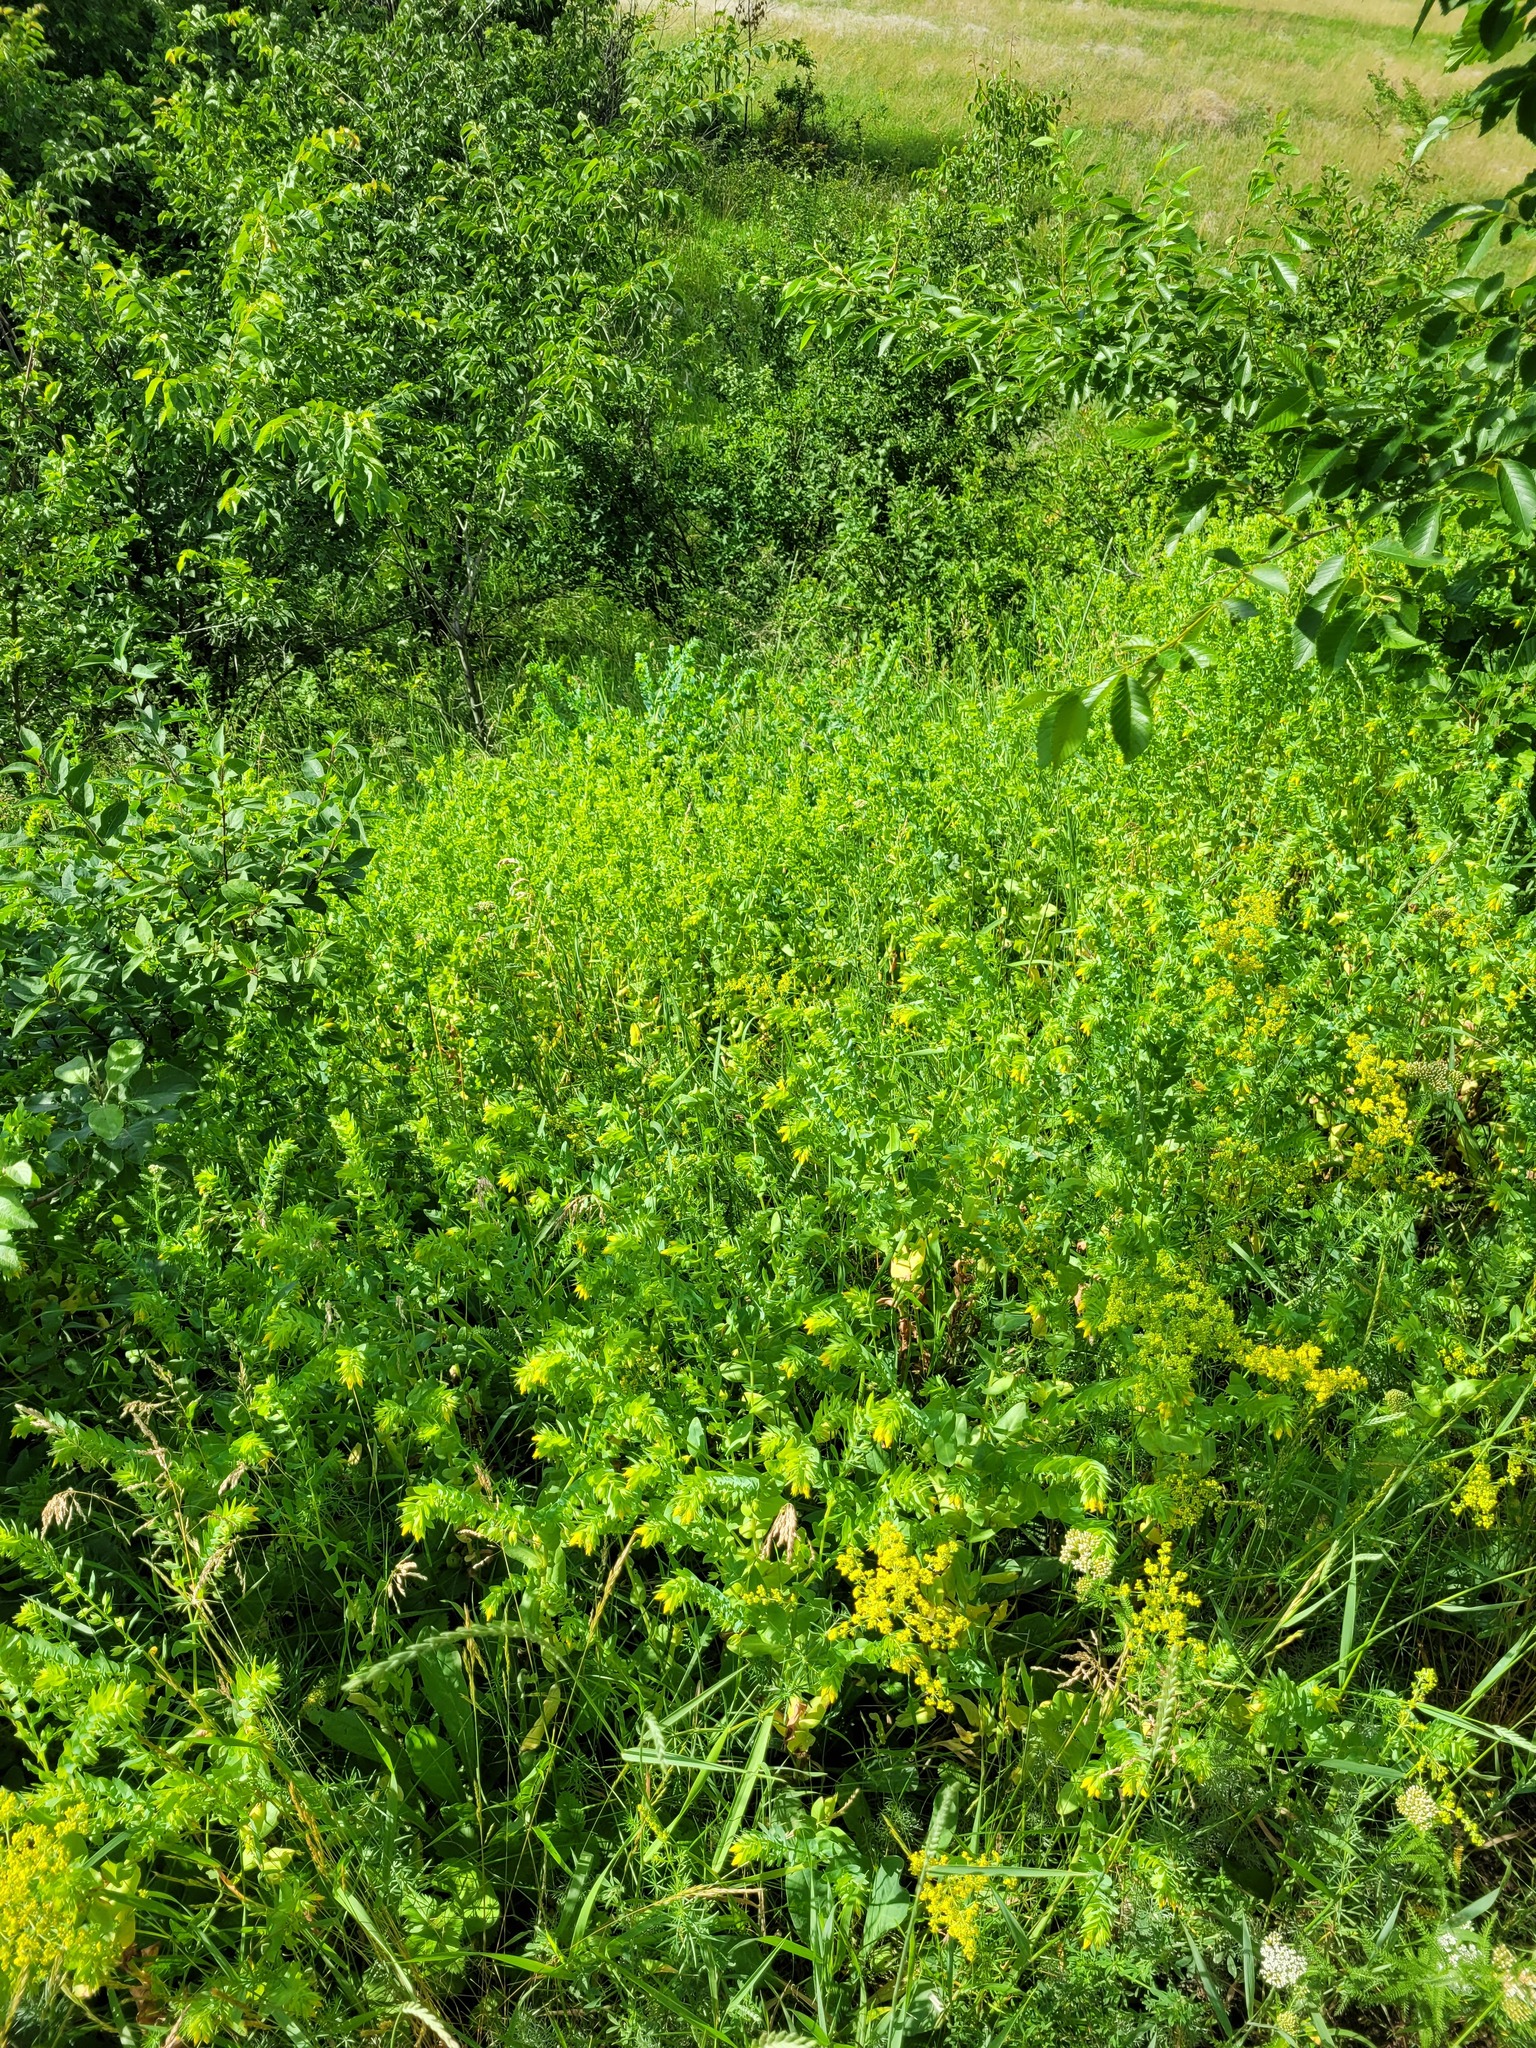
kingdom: Plantae
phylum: Tracheophyta
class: Magnoliopsida
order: Boraginales
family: Boraginaceae
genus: Cerinthe
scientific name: Cerinthe minor
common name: Lesser honeywort
